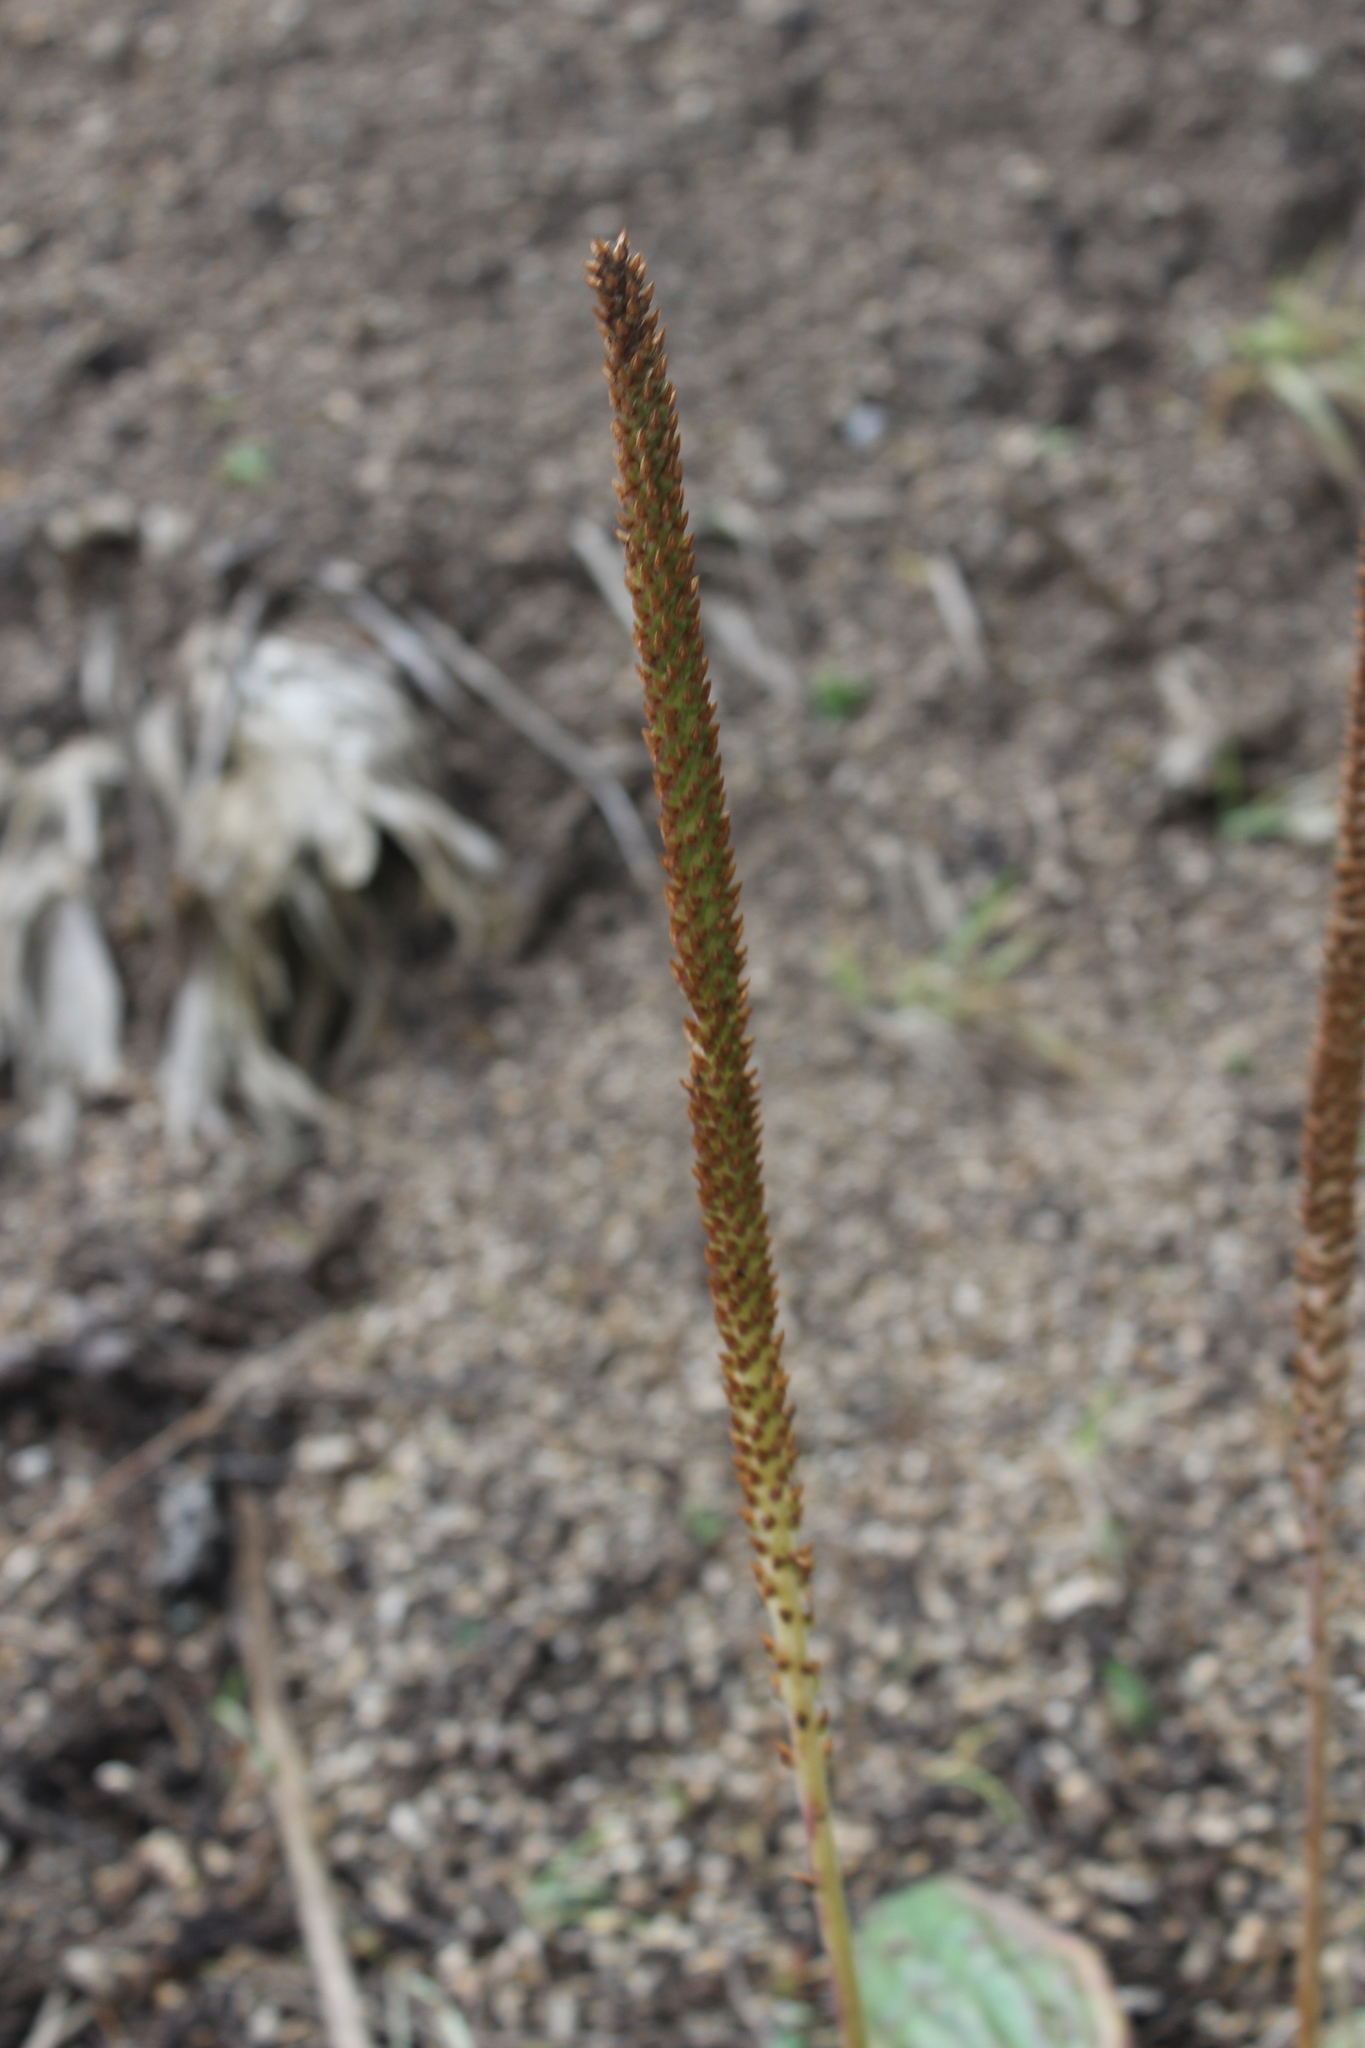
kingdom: Plantae
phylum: Tracheophyta
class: Magnoliopsida
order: Lamiales
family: Plantaginaceae
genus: Plantago
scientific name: Plantago major
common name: Common plantain
